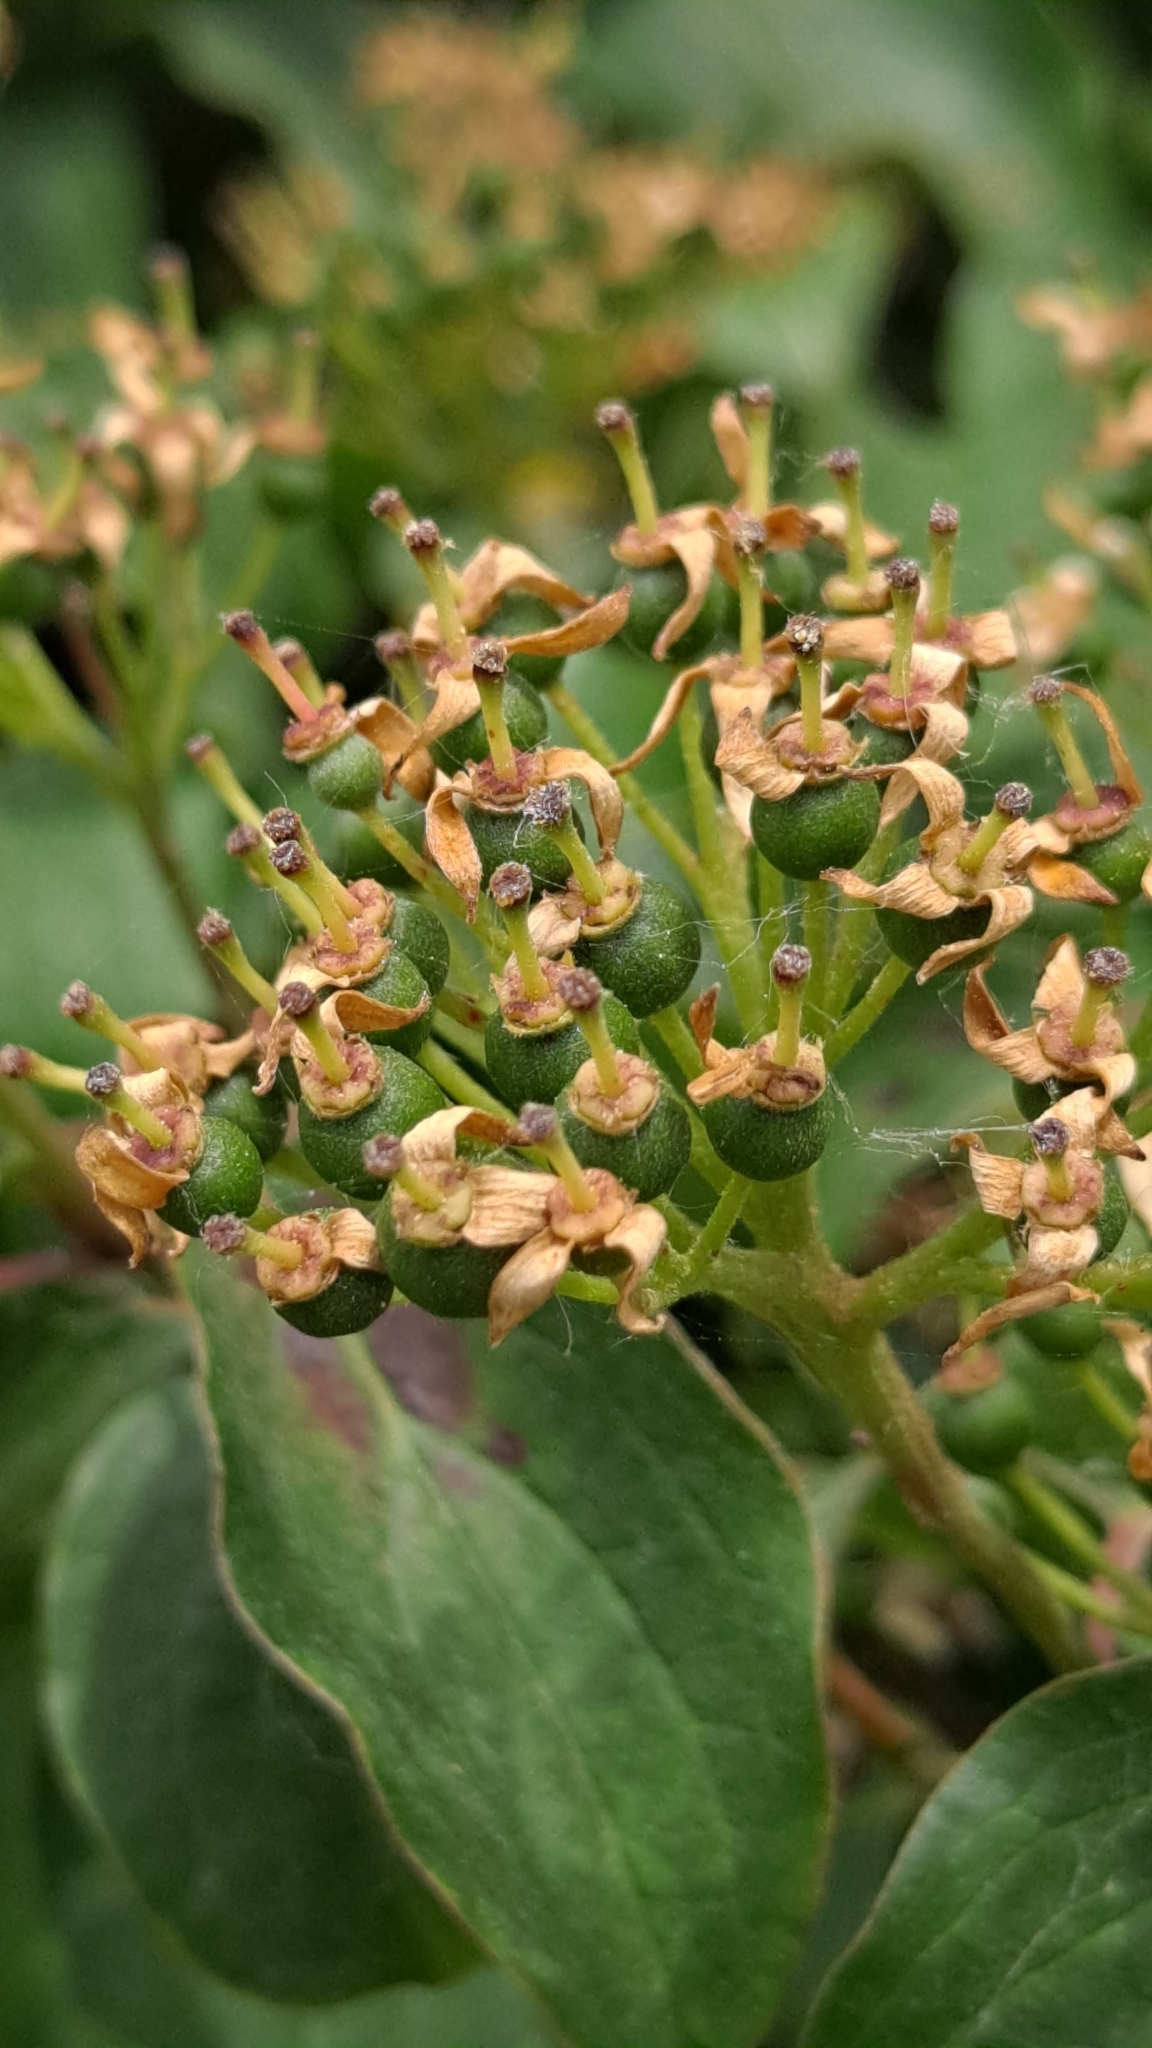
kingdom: Plantae
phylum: Tracheophyta
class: Magnoliopsida
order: Cornales
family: Cornaceae
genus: Cornus
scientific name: Cornus sanguinea
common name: Dogwood
